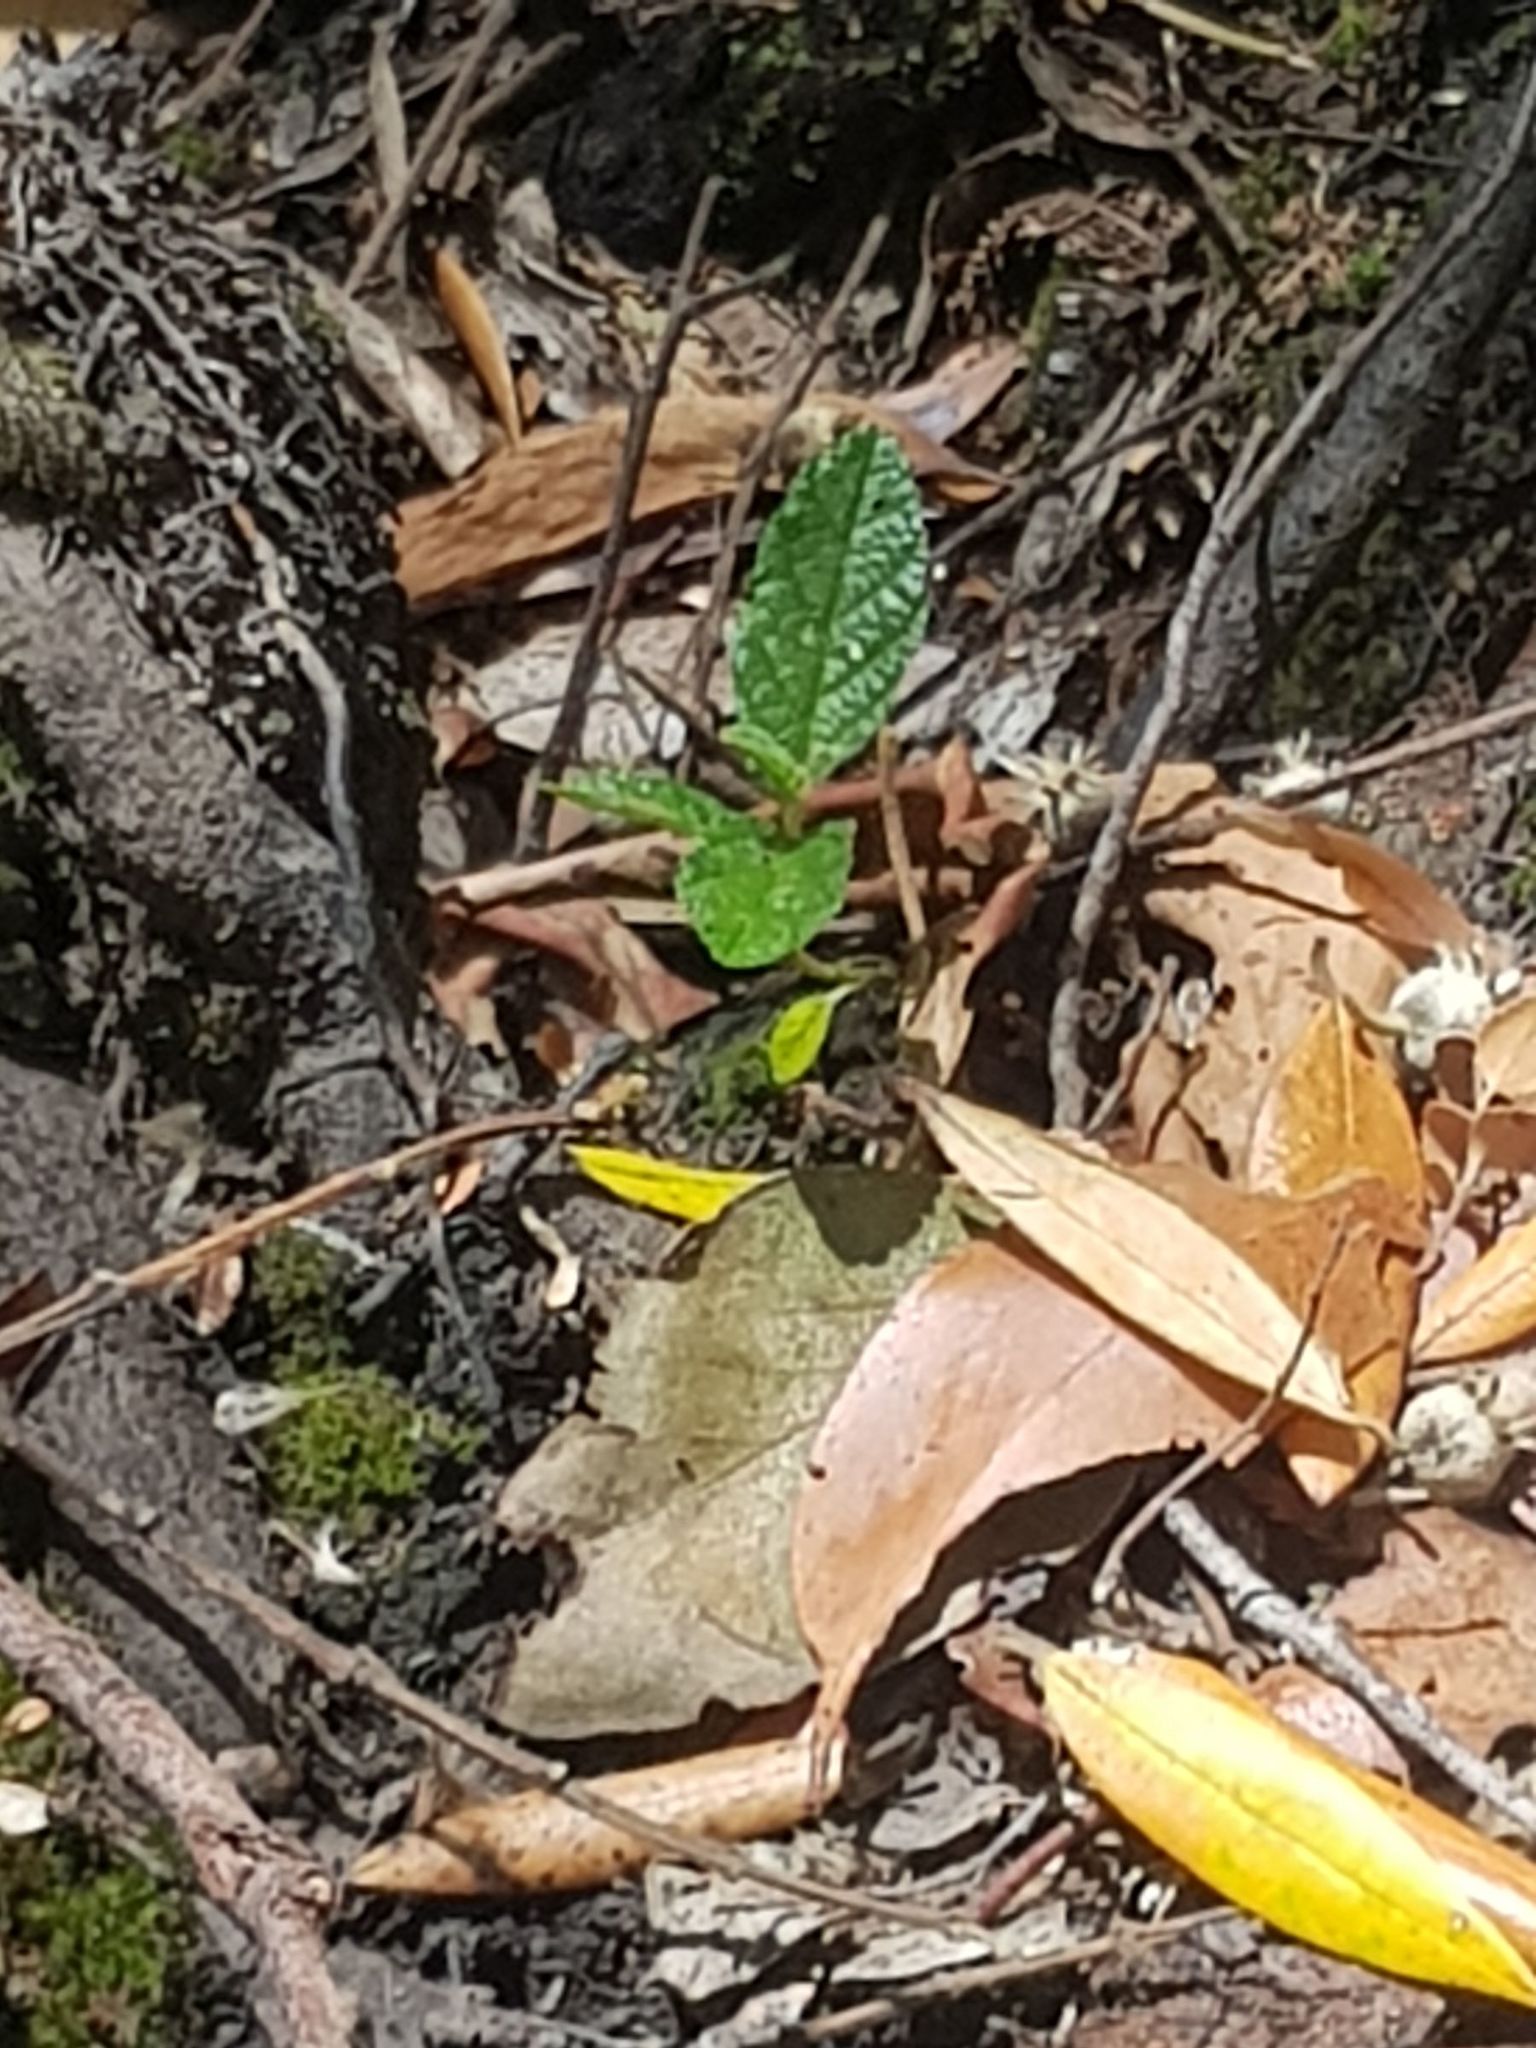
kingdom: Plantae
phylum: Tracheophyta
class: Magnoliopsida
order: Rosales
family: Rhamnaceae
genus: Pomaderris
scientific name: Pomaderris apetala
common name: Hazel pomaderris
